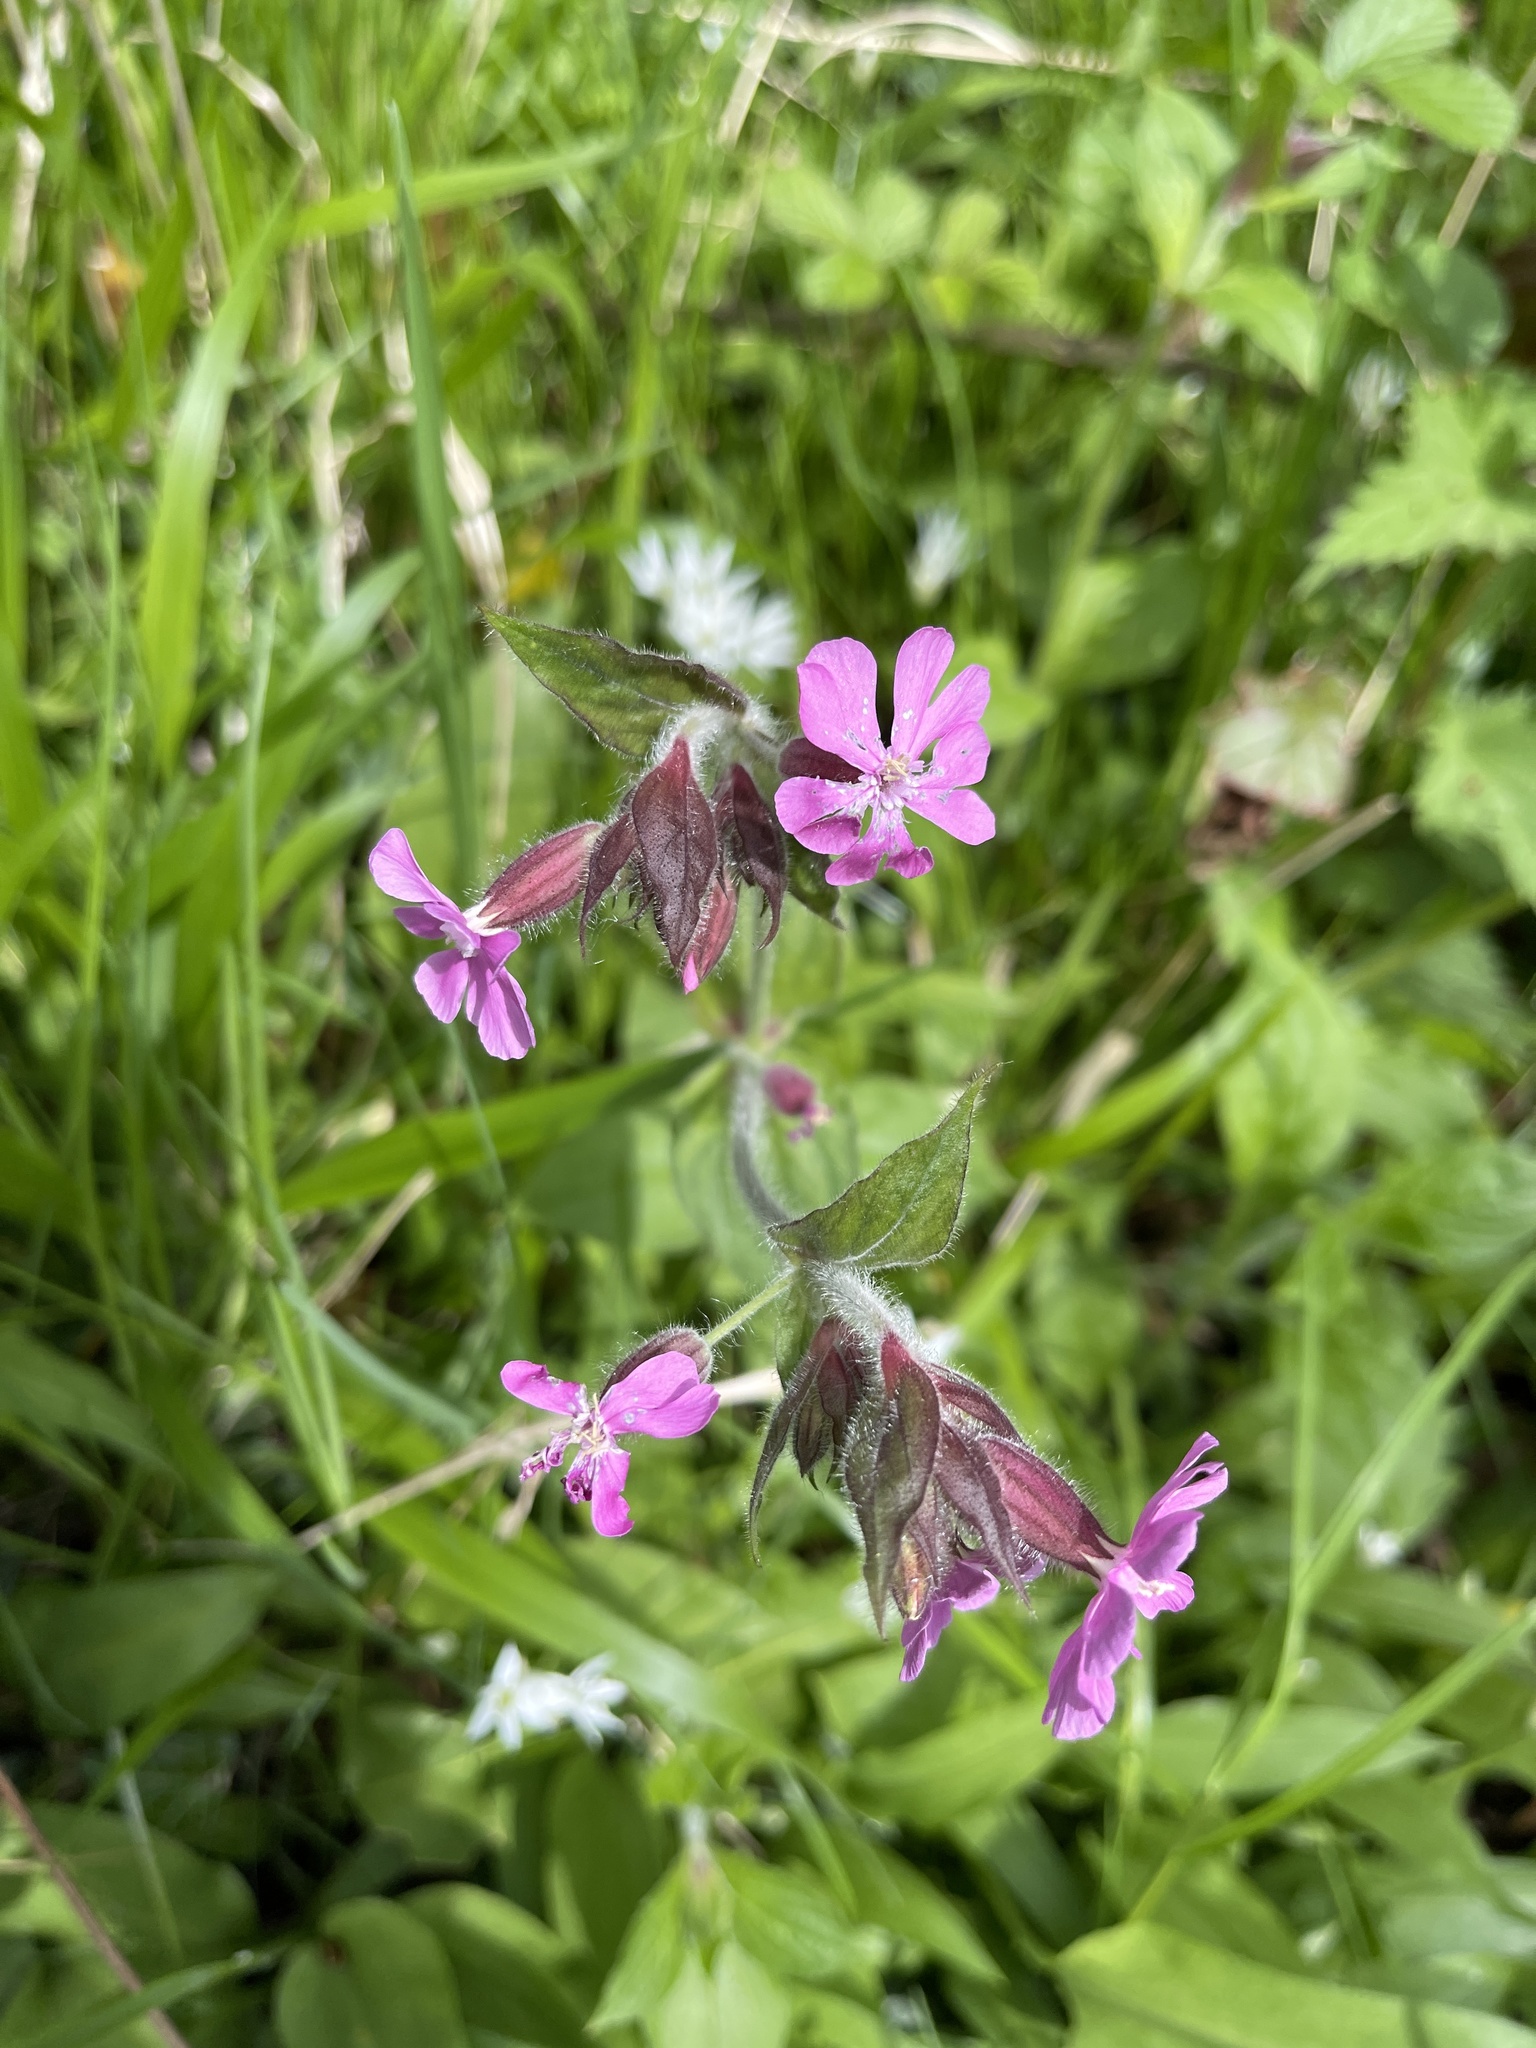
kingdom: Plantae
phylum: Tracheophyta
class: Magnoliopsida
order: Caryophyllales
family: Caryophyllaceae
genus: Silene
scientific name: Silene dioica
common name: Red campion
